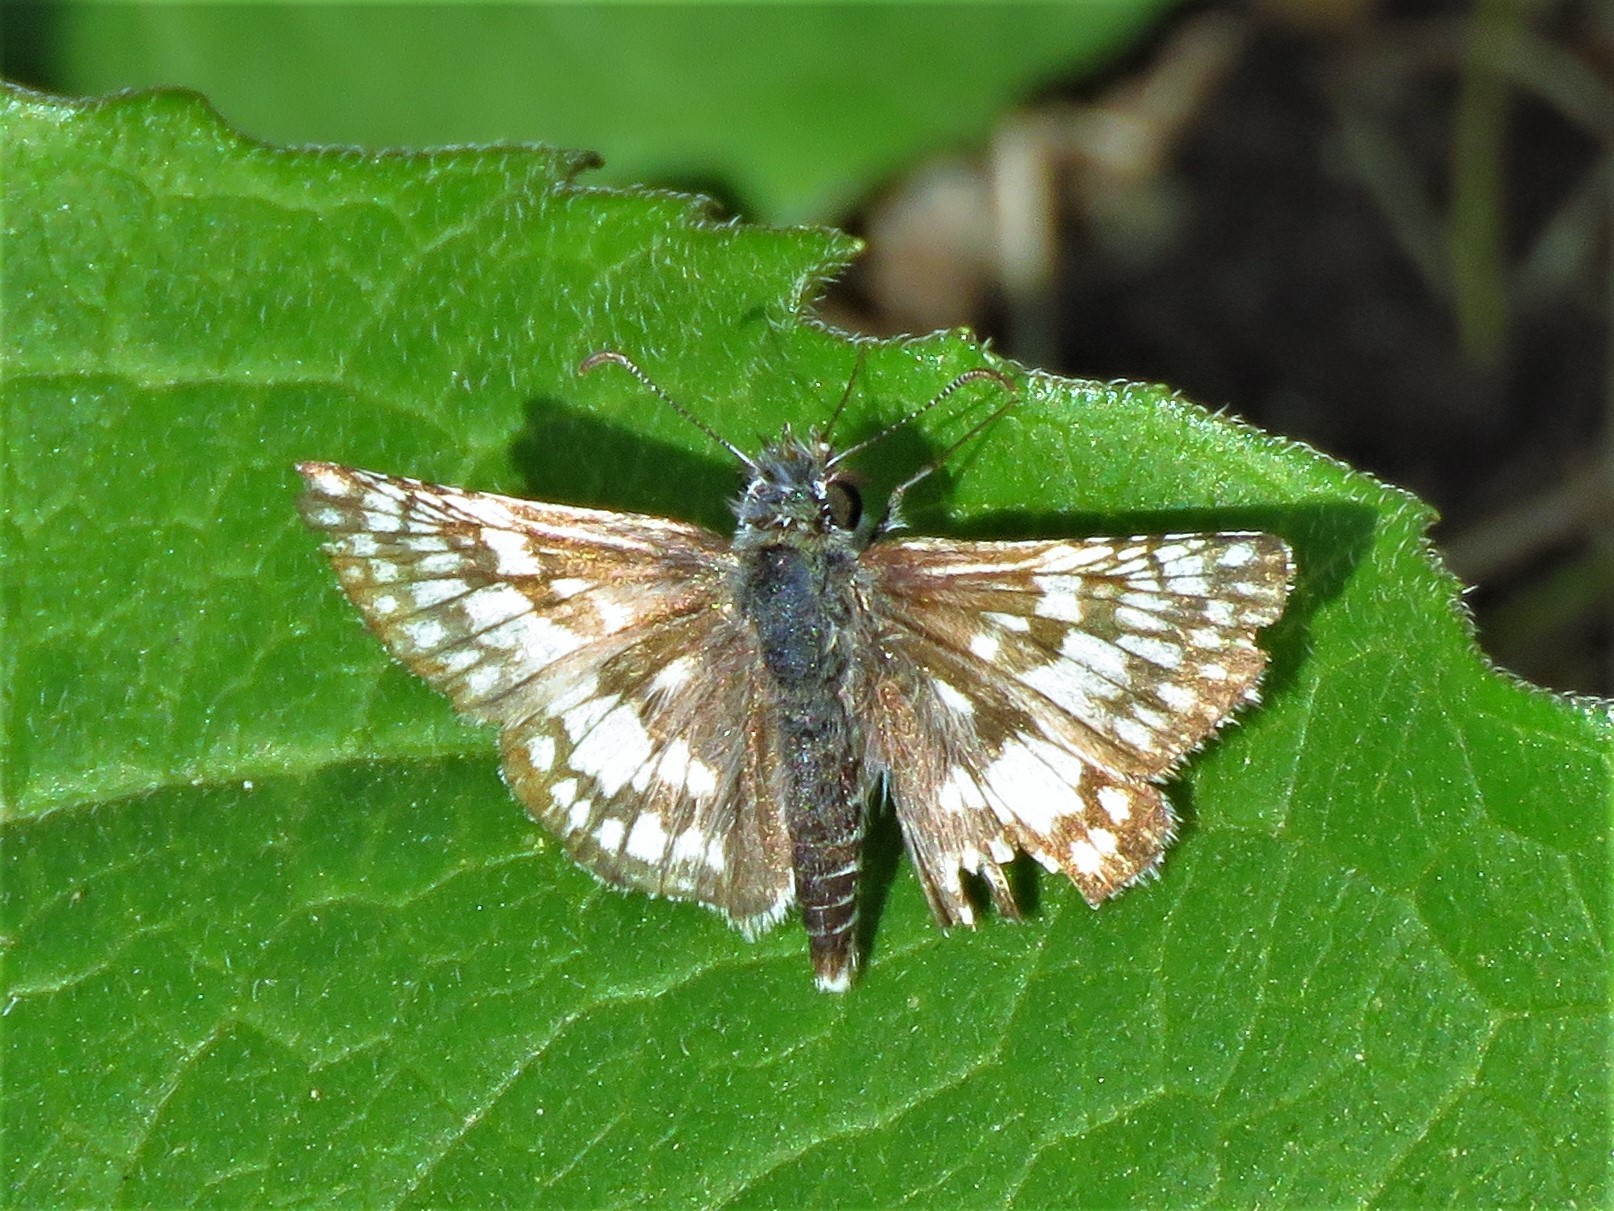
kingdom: Animalia
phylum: Arthropoda
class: Insecta
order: Lepidoptera
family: Hesperiidae
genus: Burnsius
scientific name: Burnsius
